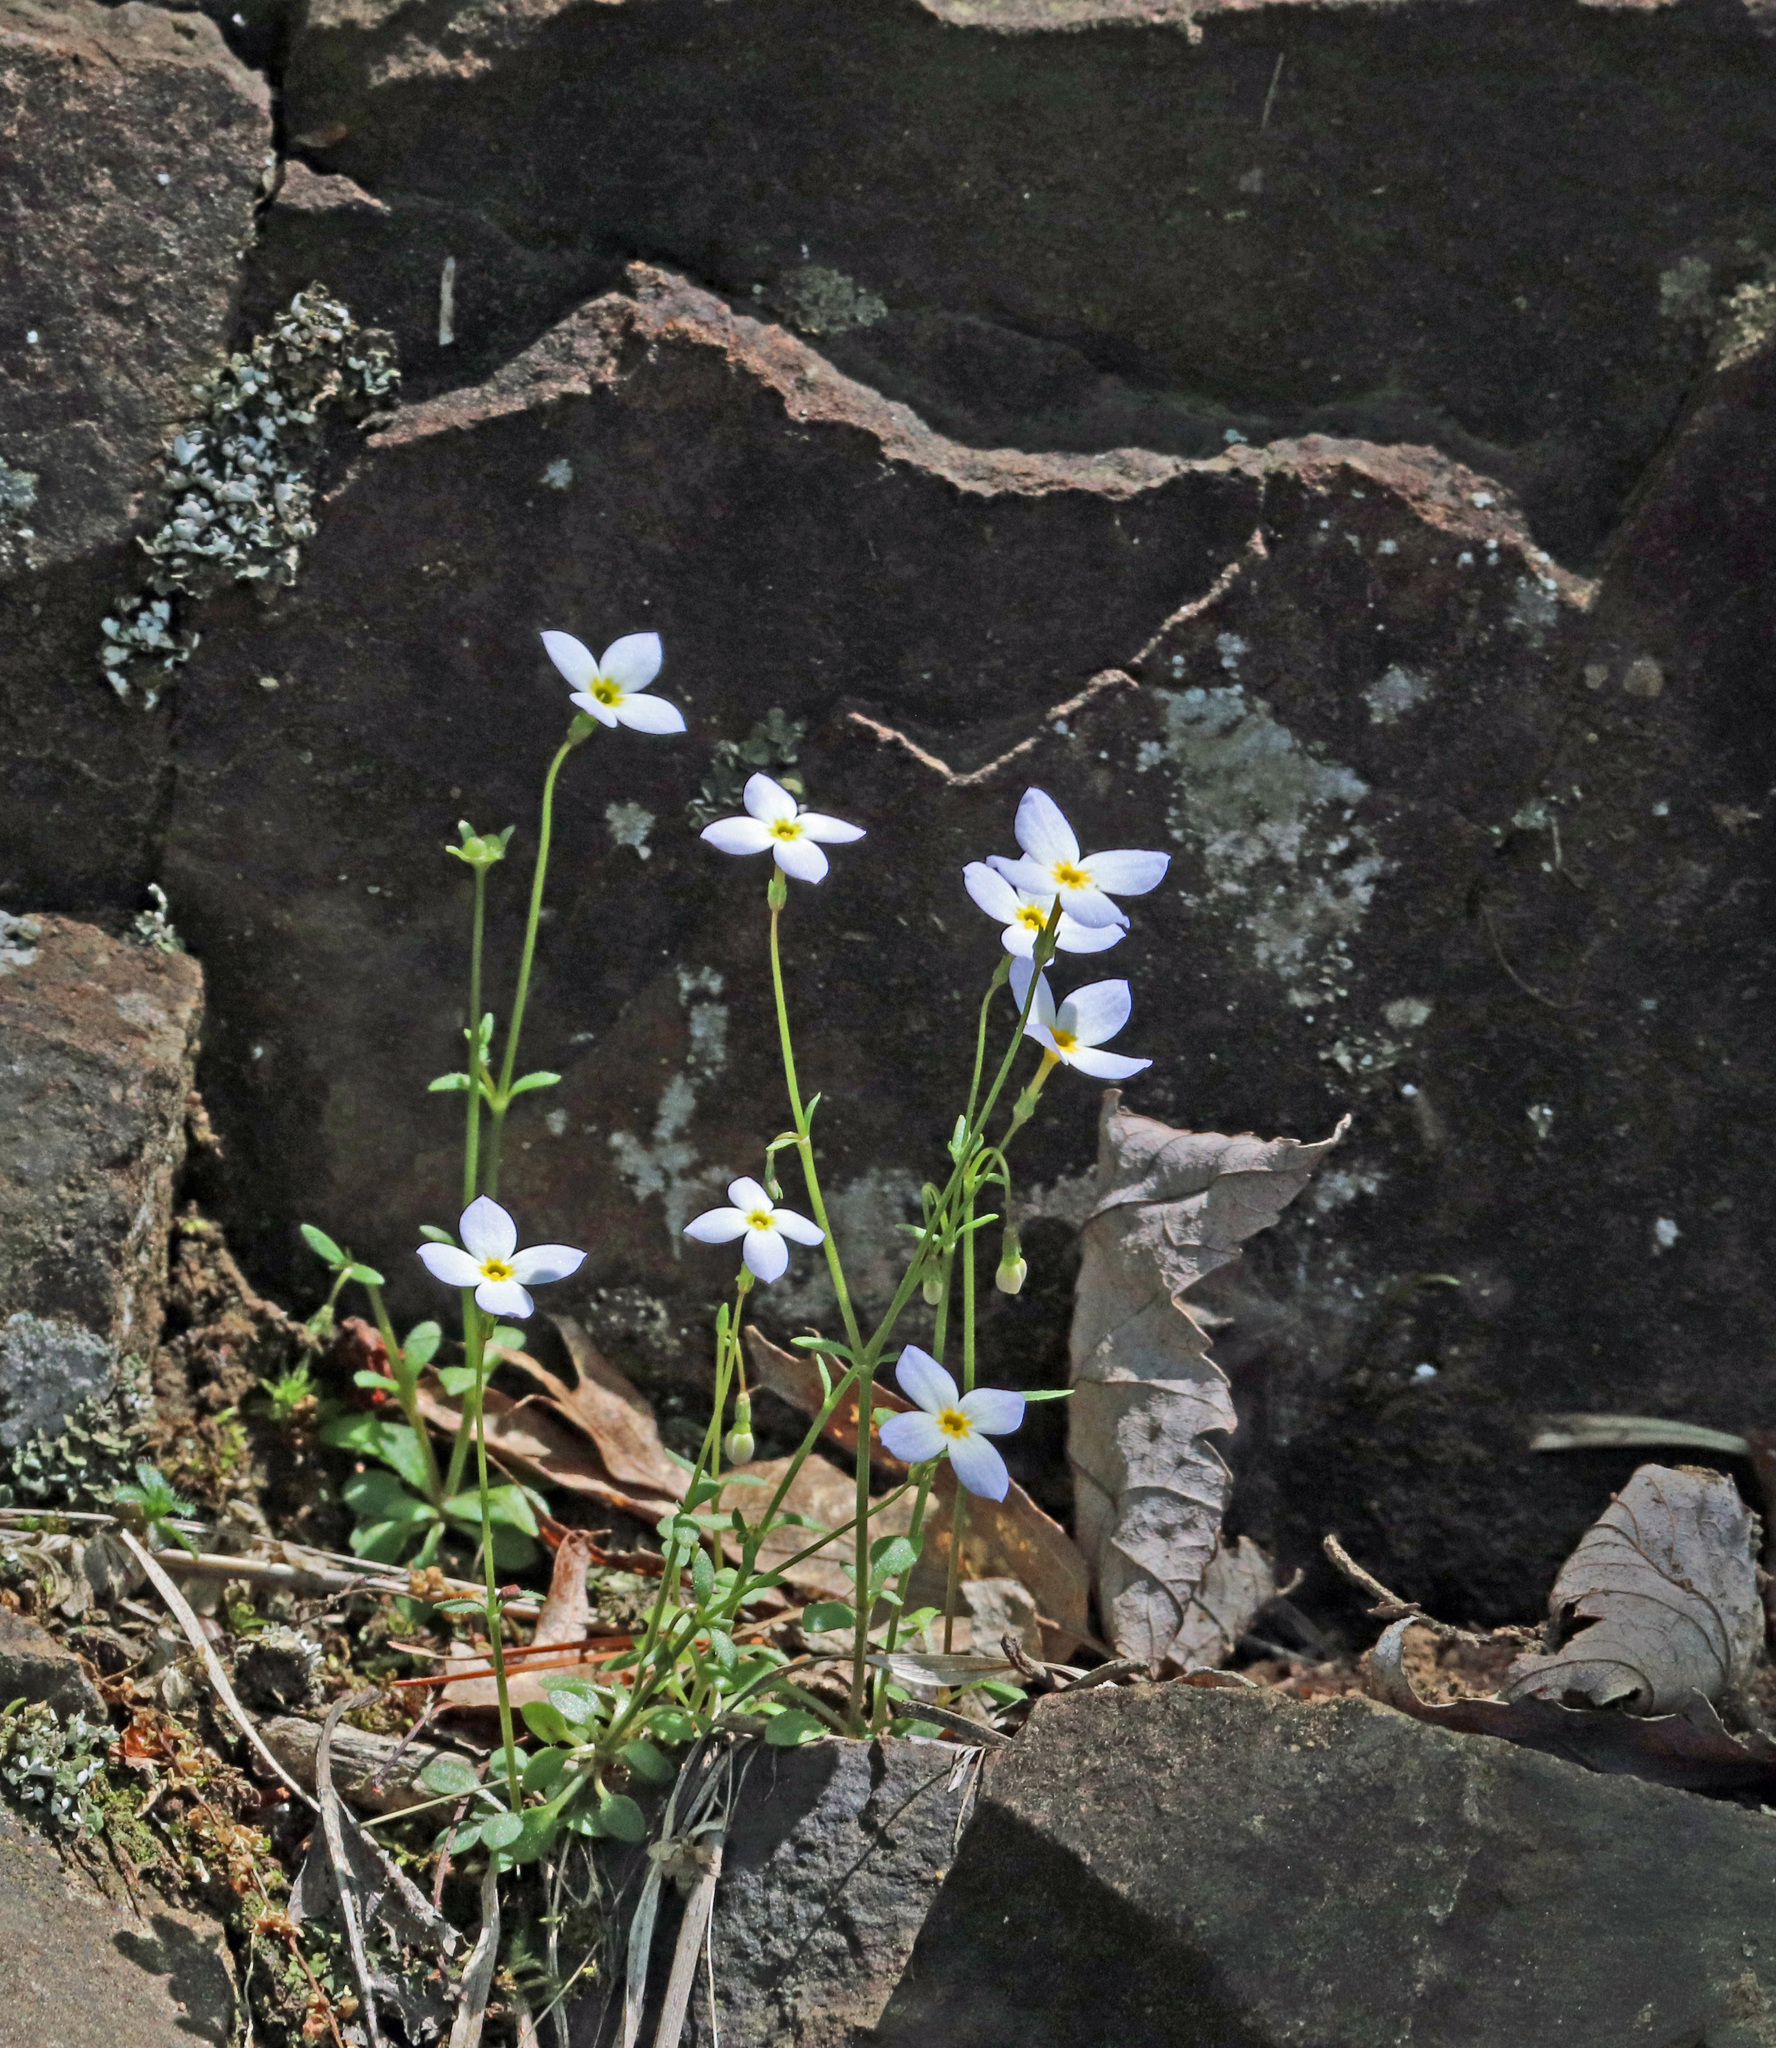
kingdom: Plantae
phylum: Tracheophyta
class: Magnoliopsida
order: Gentianales
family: Rubiaceae
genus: Houstonia
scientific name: Houstonia caerulea
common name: Bluets
